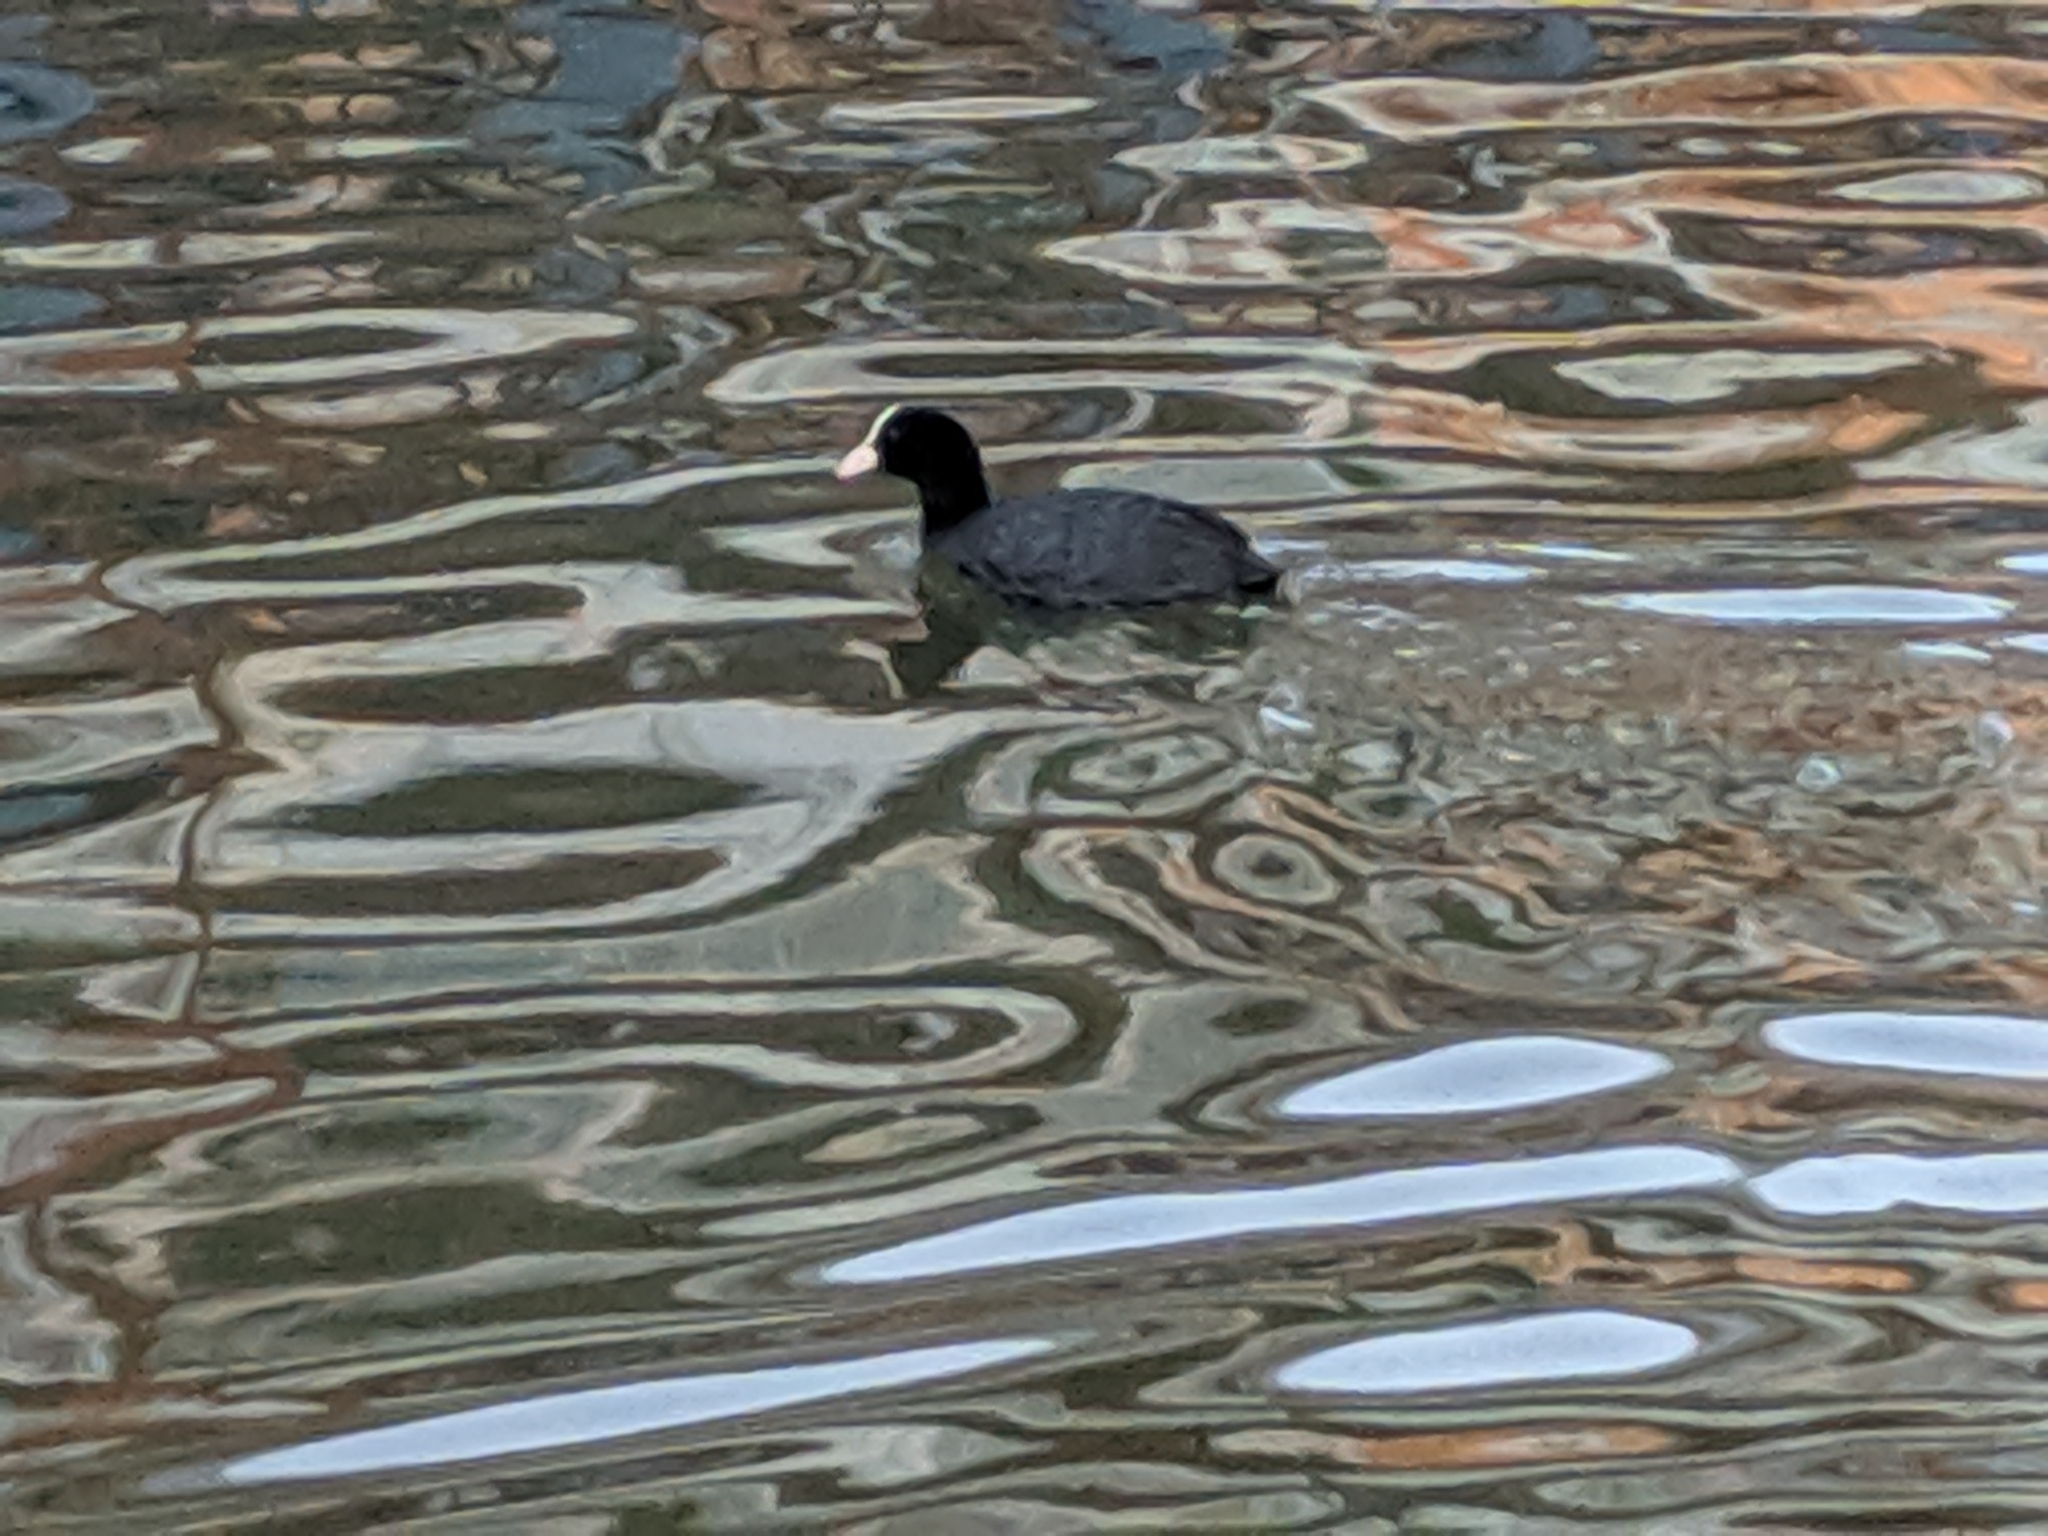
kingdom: Animalia
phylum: Chordata
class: Aves
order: Gruiformes
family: Rallidae
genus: Fulica
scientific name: Fulica atra
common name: Eurasian coot
